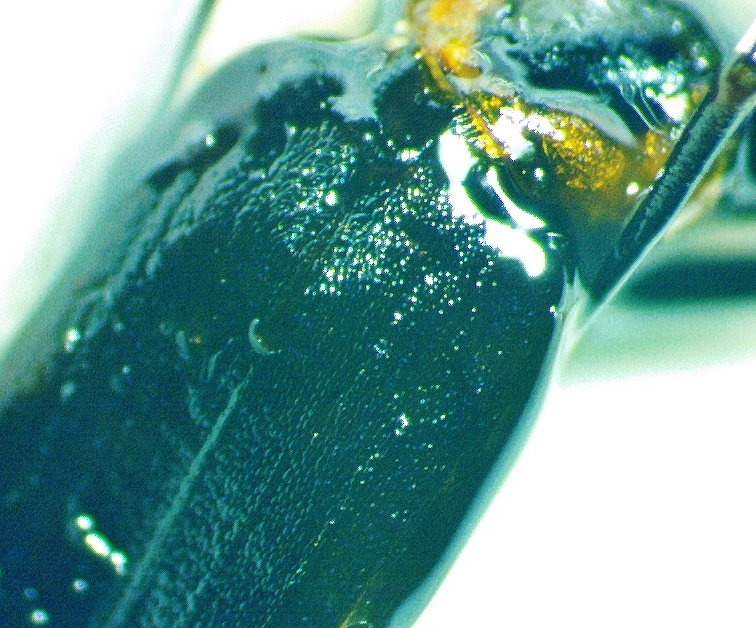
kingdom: Animalia
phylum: Arthropoda
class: Insecta
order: Coleoptera
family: Oedemeridae
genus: Ischnomera
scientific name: Ischnomera
